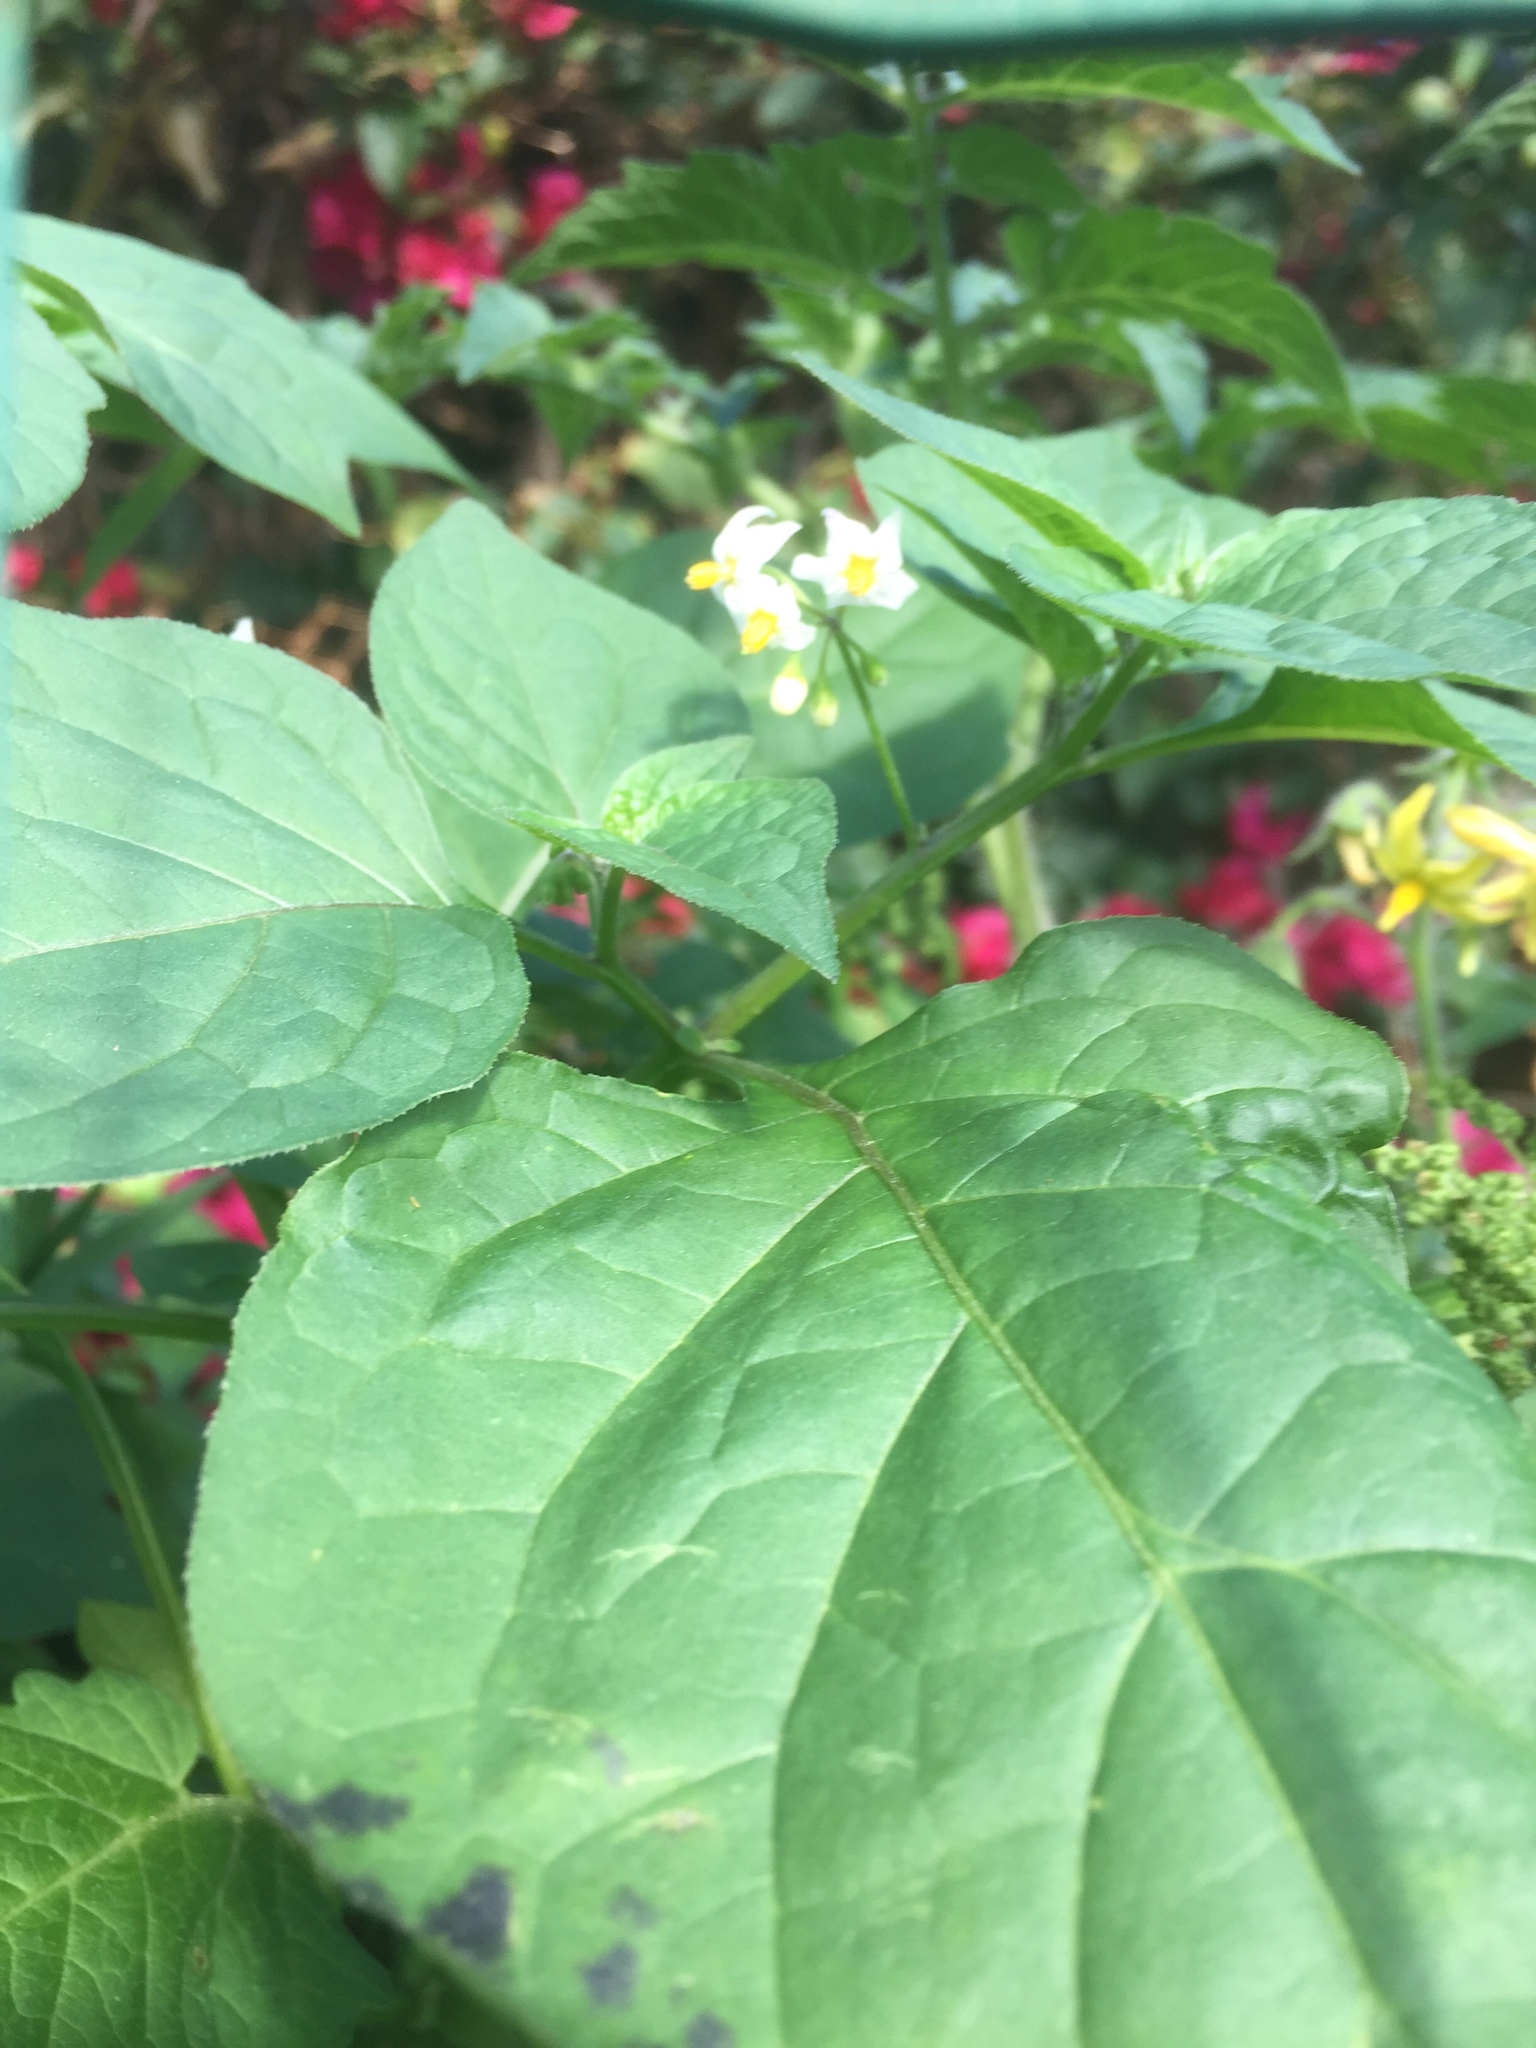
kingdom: Plantae
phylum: Tracheophyta
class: Magnoliopsida
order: Solanales
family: Solanaceae
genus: Solanum
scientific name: Solanum nigrum
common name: Black nightshade
